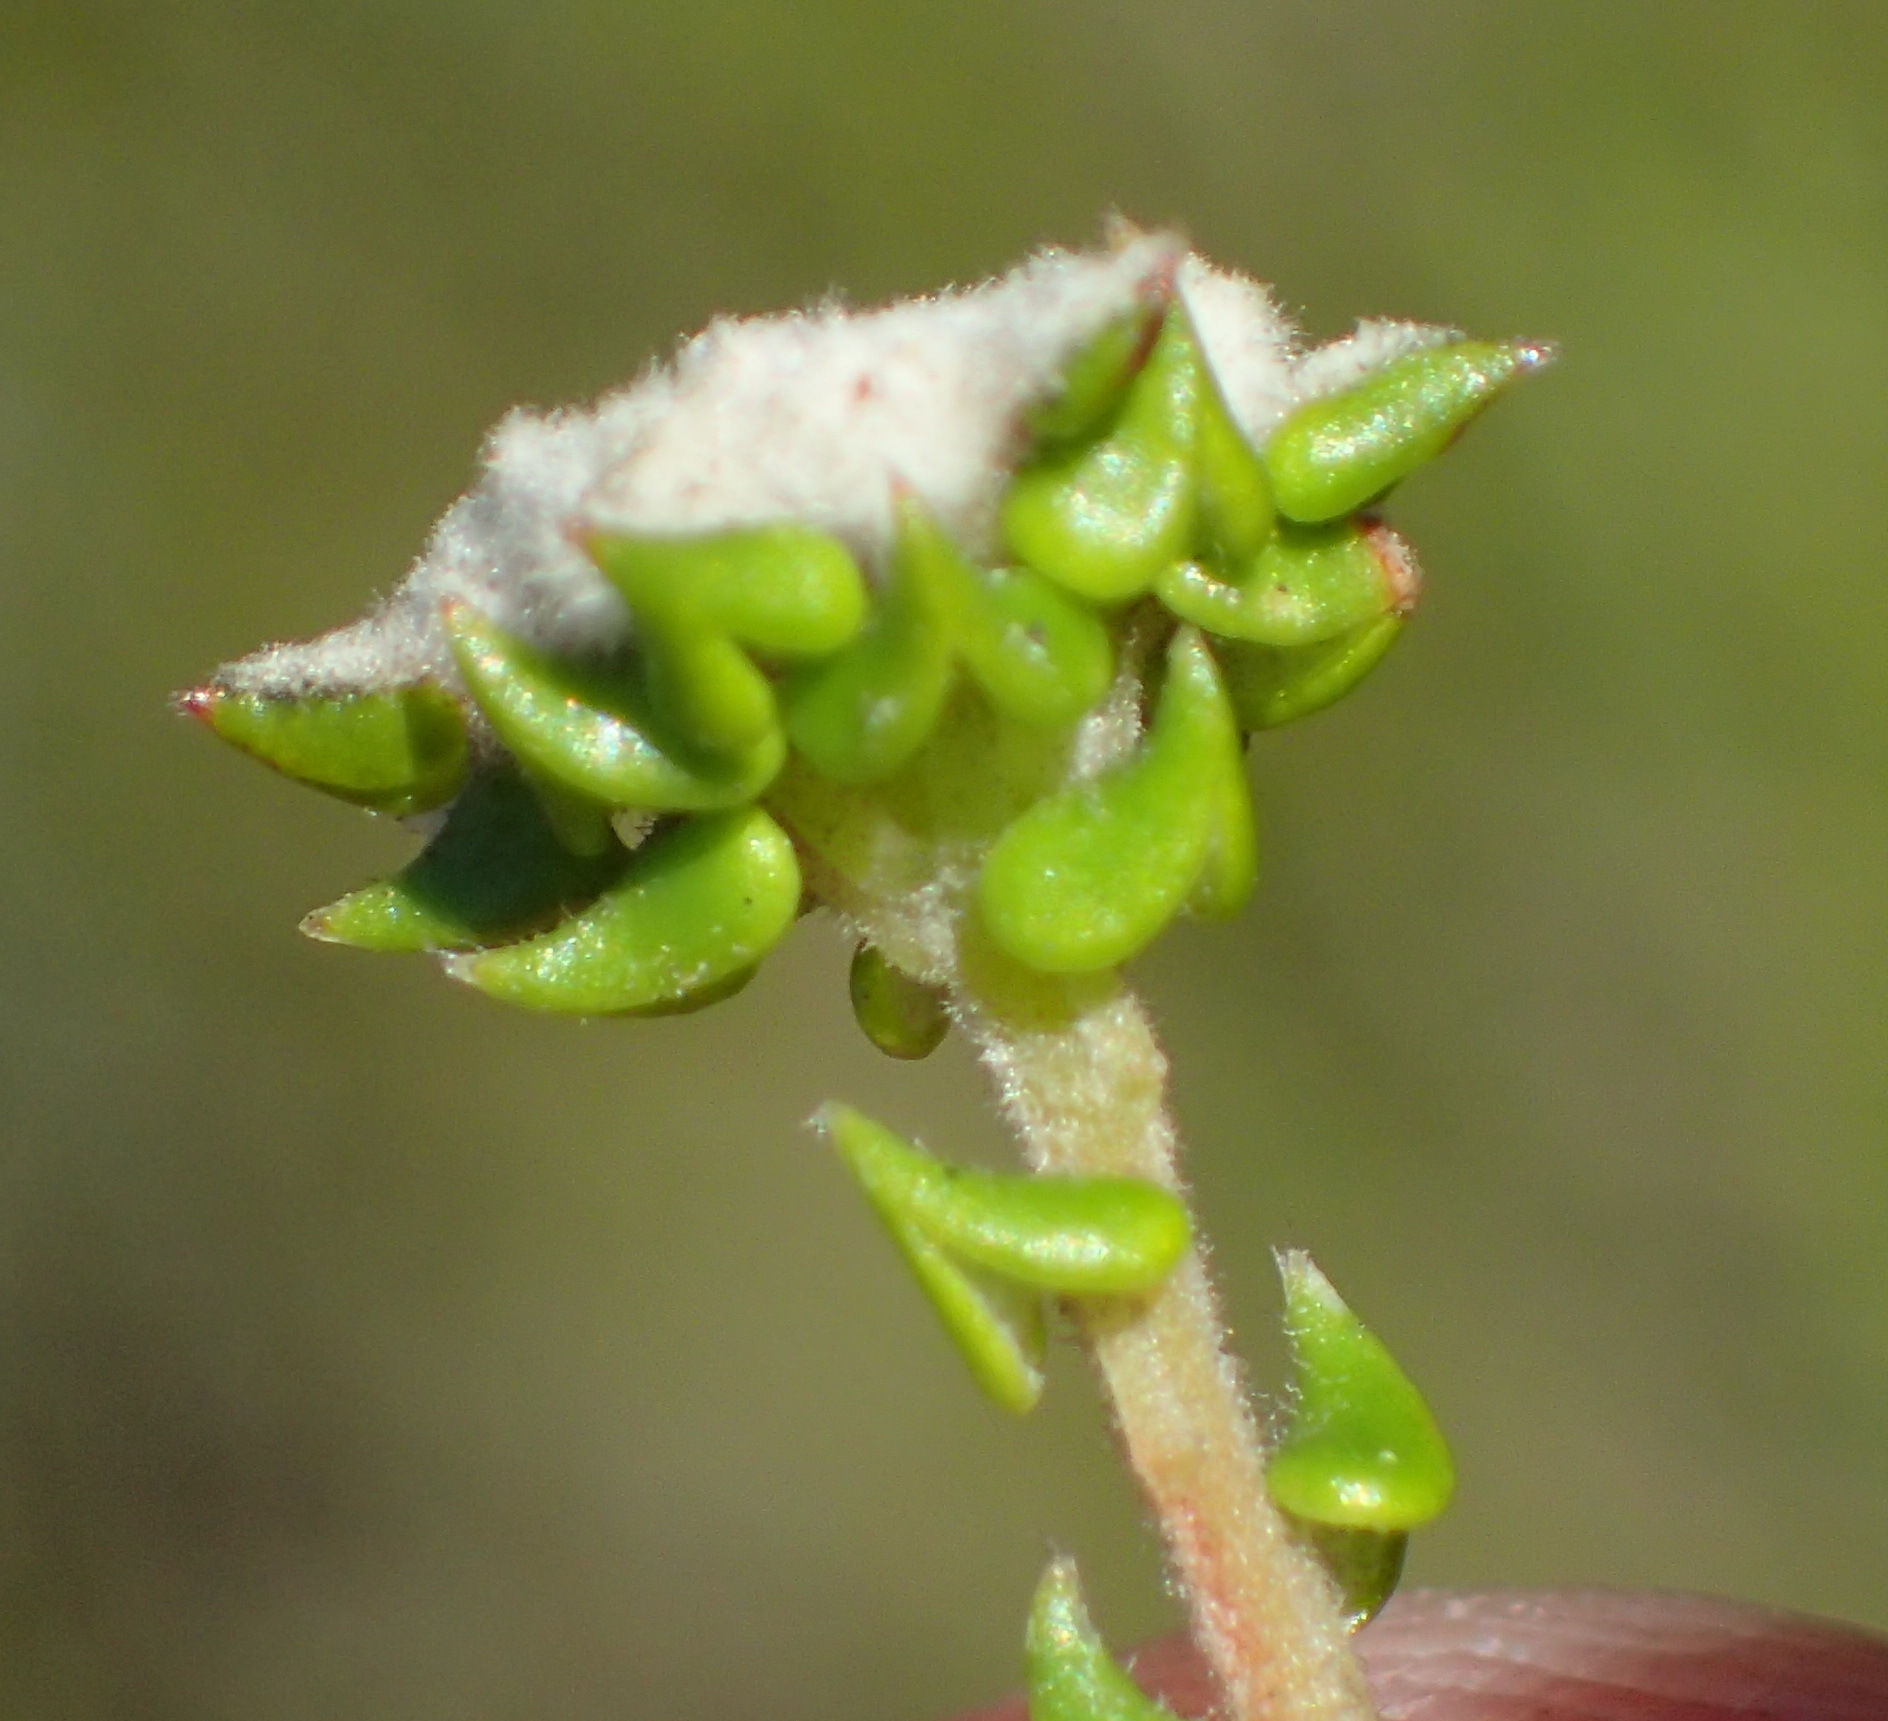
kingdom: Plantae
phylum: Tracheophyta
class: Magnoliopsida
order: Rosales
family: Rhamnaceae
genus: Phylica
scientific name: Phylica debilis
